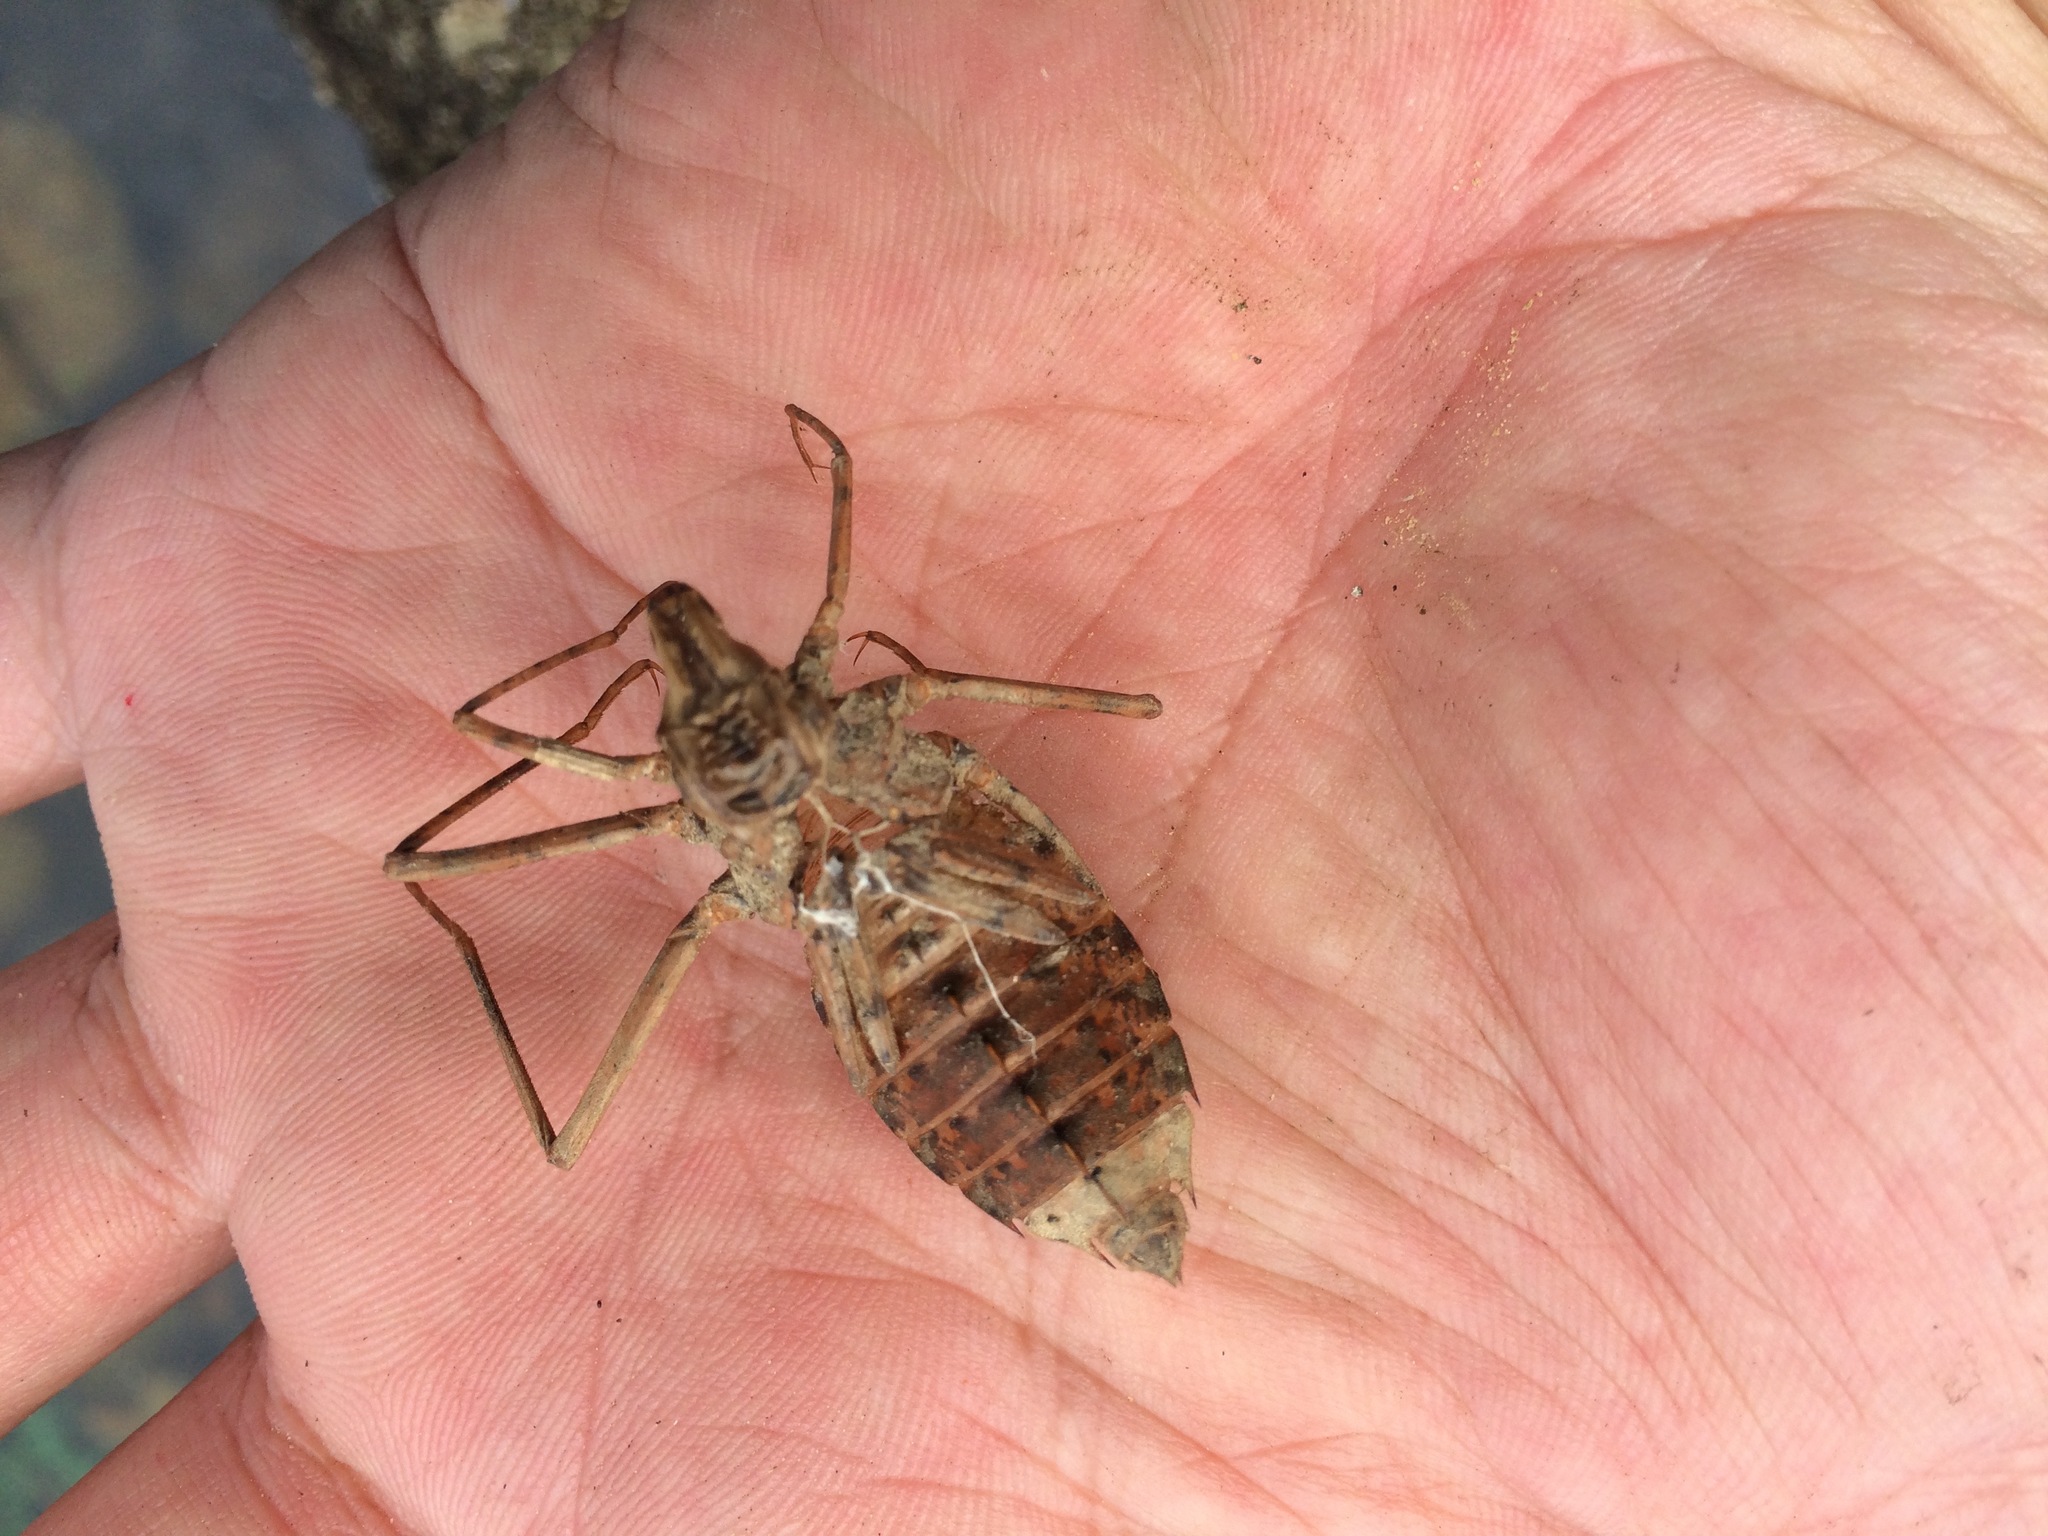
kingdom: Animalia
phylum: Arthropoda
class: Insecta
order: Odonata
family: Macromiidae
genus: Epophthalmia
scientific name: Epophthalmia elegans
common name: Regal pond cruiser
